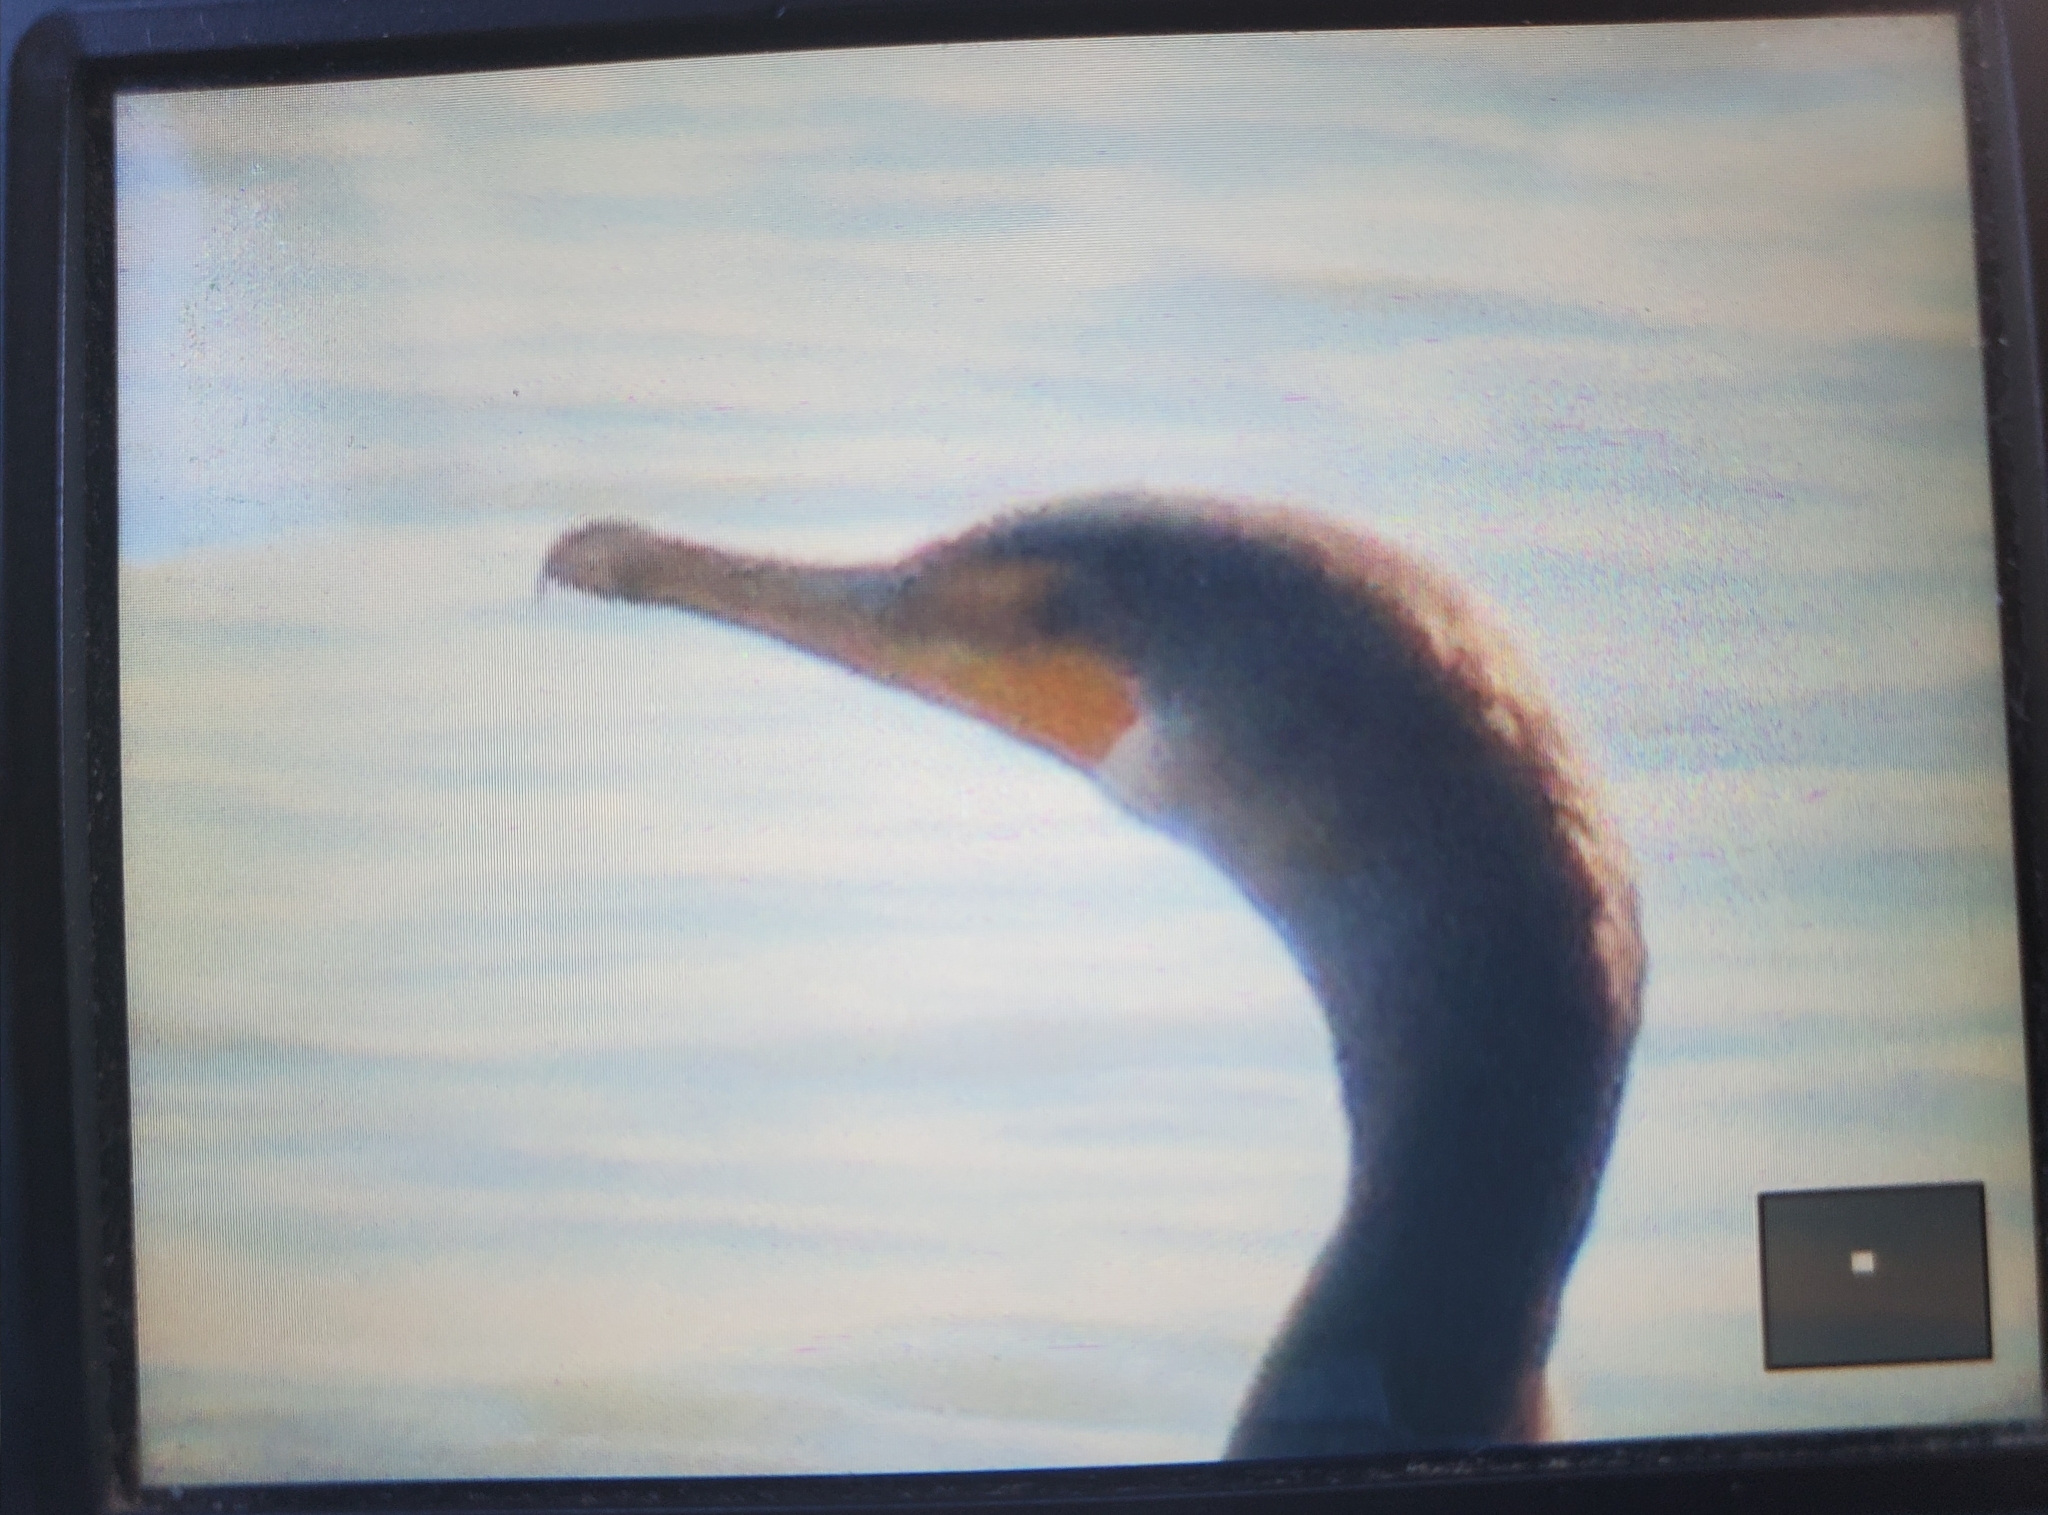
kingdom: Animalia
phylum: Chordata
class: Aves
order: Suliformes
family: Phalacrocoracidae
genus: Phalacrocorax
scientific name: Phalacrocorax auritus
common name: Double-crested cormorant
